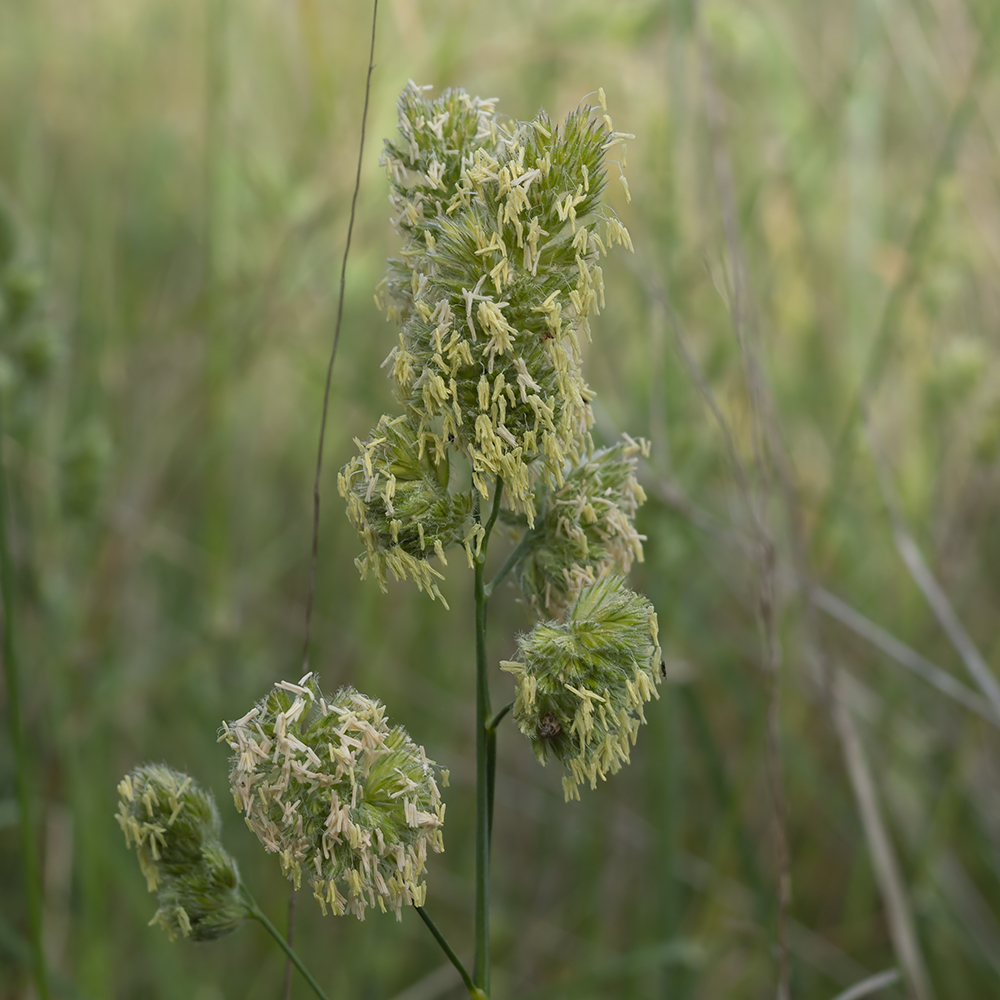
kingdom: Plantae
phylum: Tracheophyta
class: Liliopsida
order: Poales
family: Poaceae
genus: Dactylis
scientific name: Dactylis glomerata
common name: Orchardgrass
